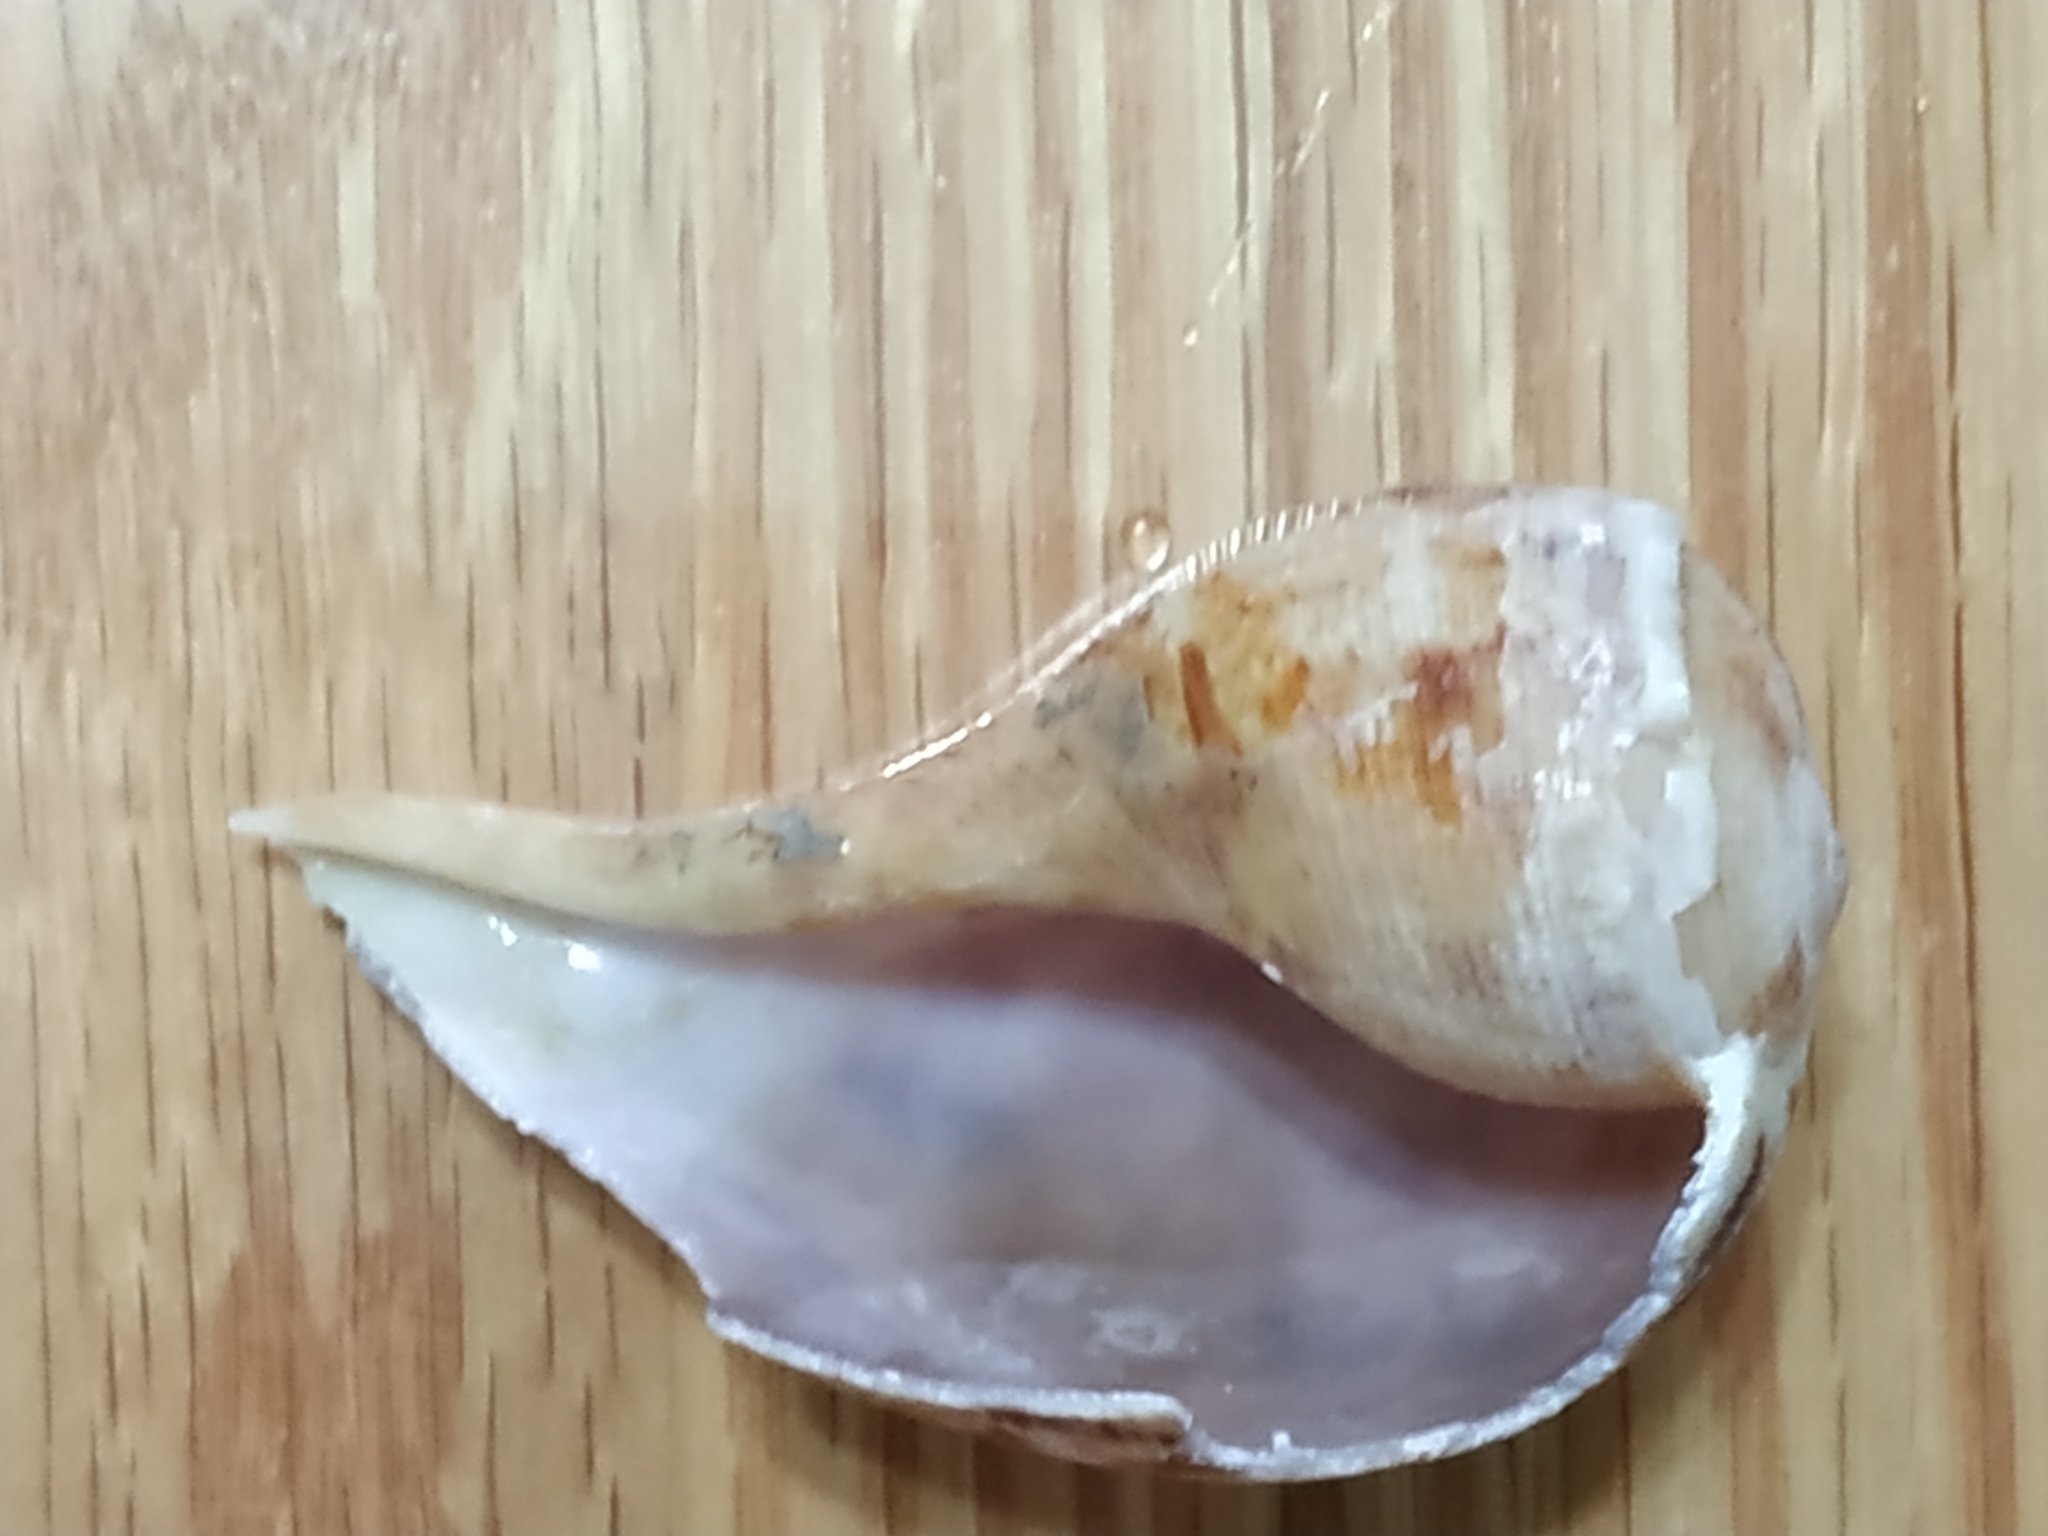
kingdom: Animalia
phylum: Mollusca
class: Gastropoda
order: Littorinimorpha
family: Ficidae
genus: Ficus
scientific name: Ficus variegata
